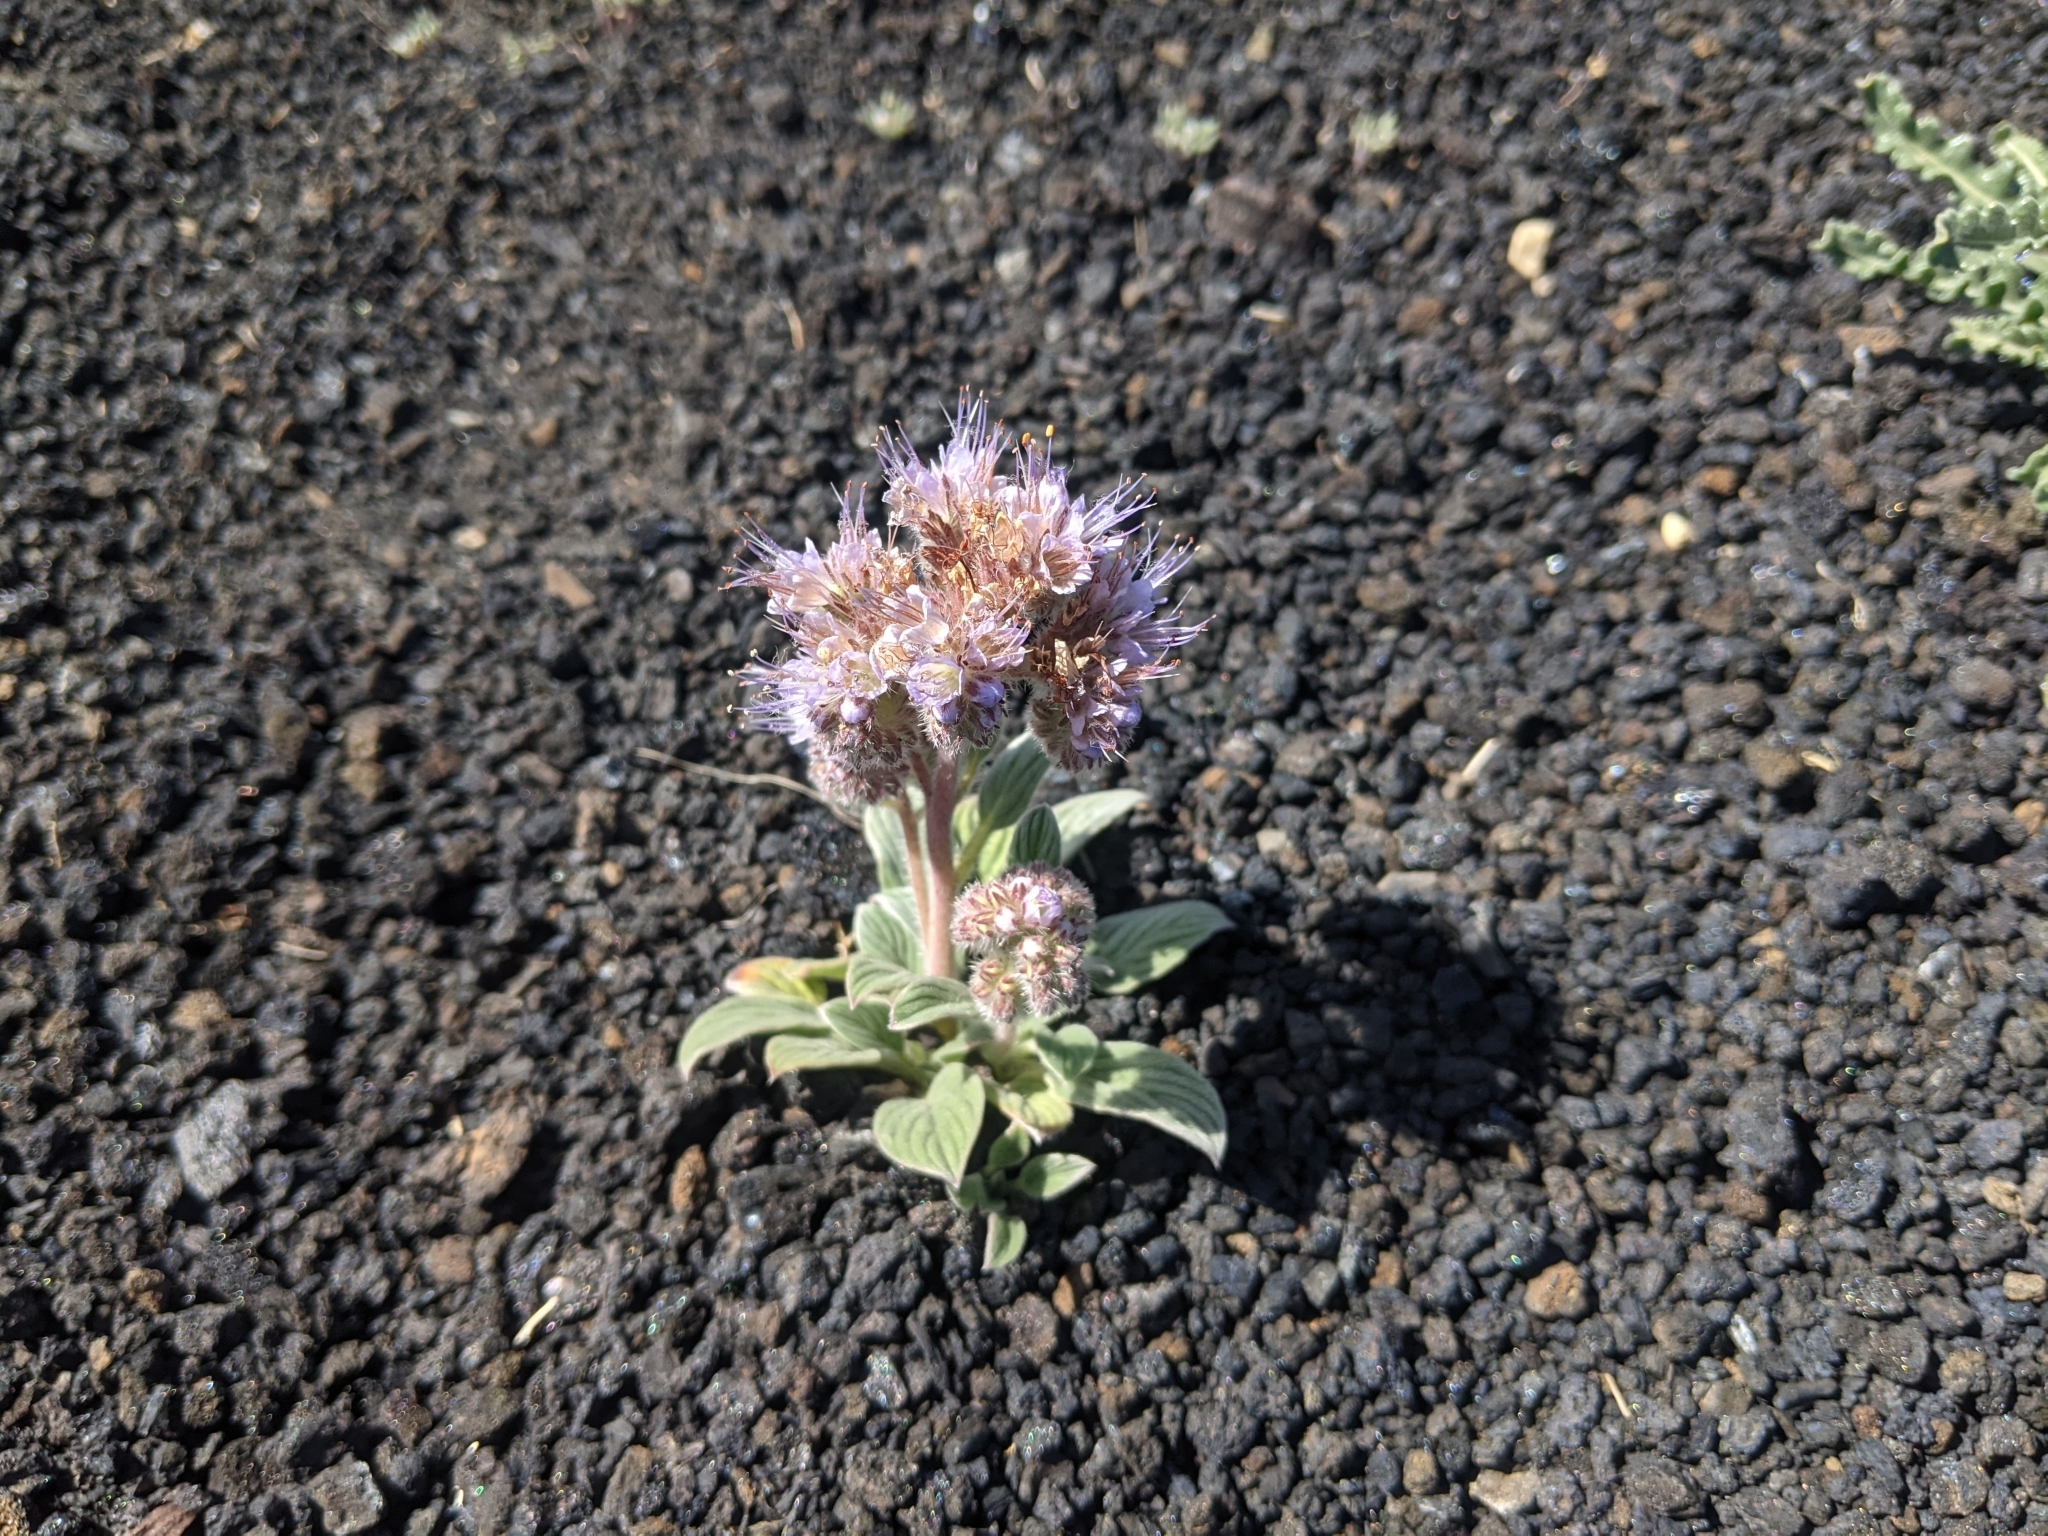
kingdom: Plantae
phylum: Tracheophyta
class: Magnoliopsida
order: Boraginales
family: Hydrophyllaceae
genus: Phacelia
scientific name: Phacelia hastata
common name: Silver-leaved phacelia
